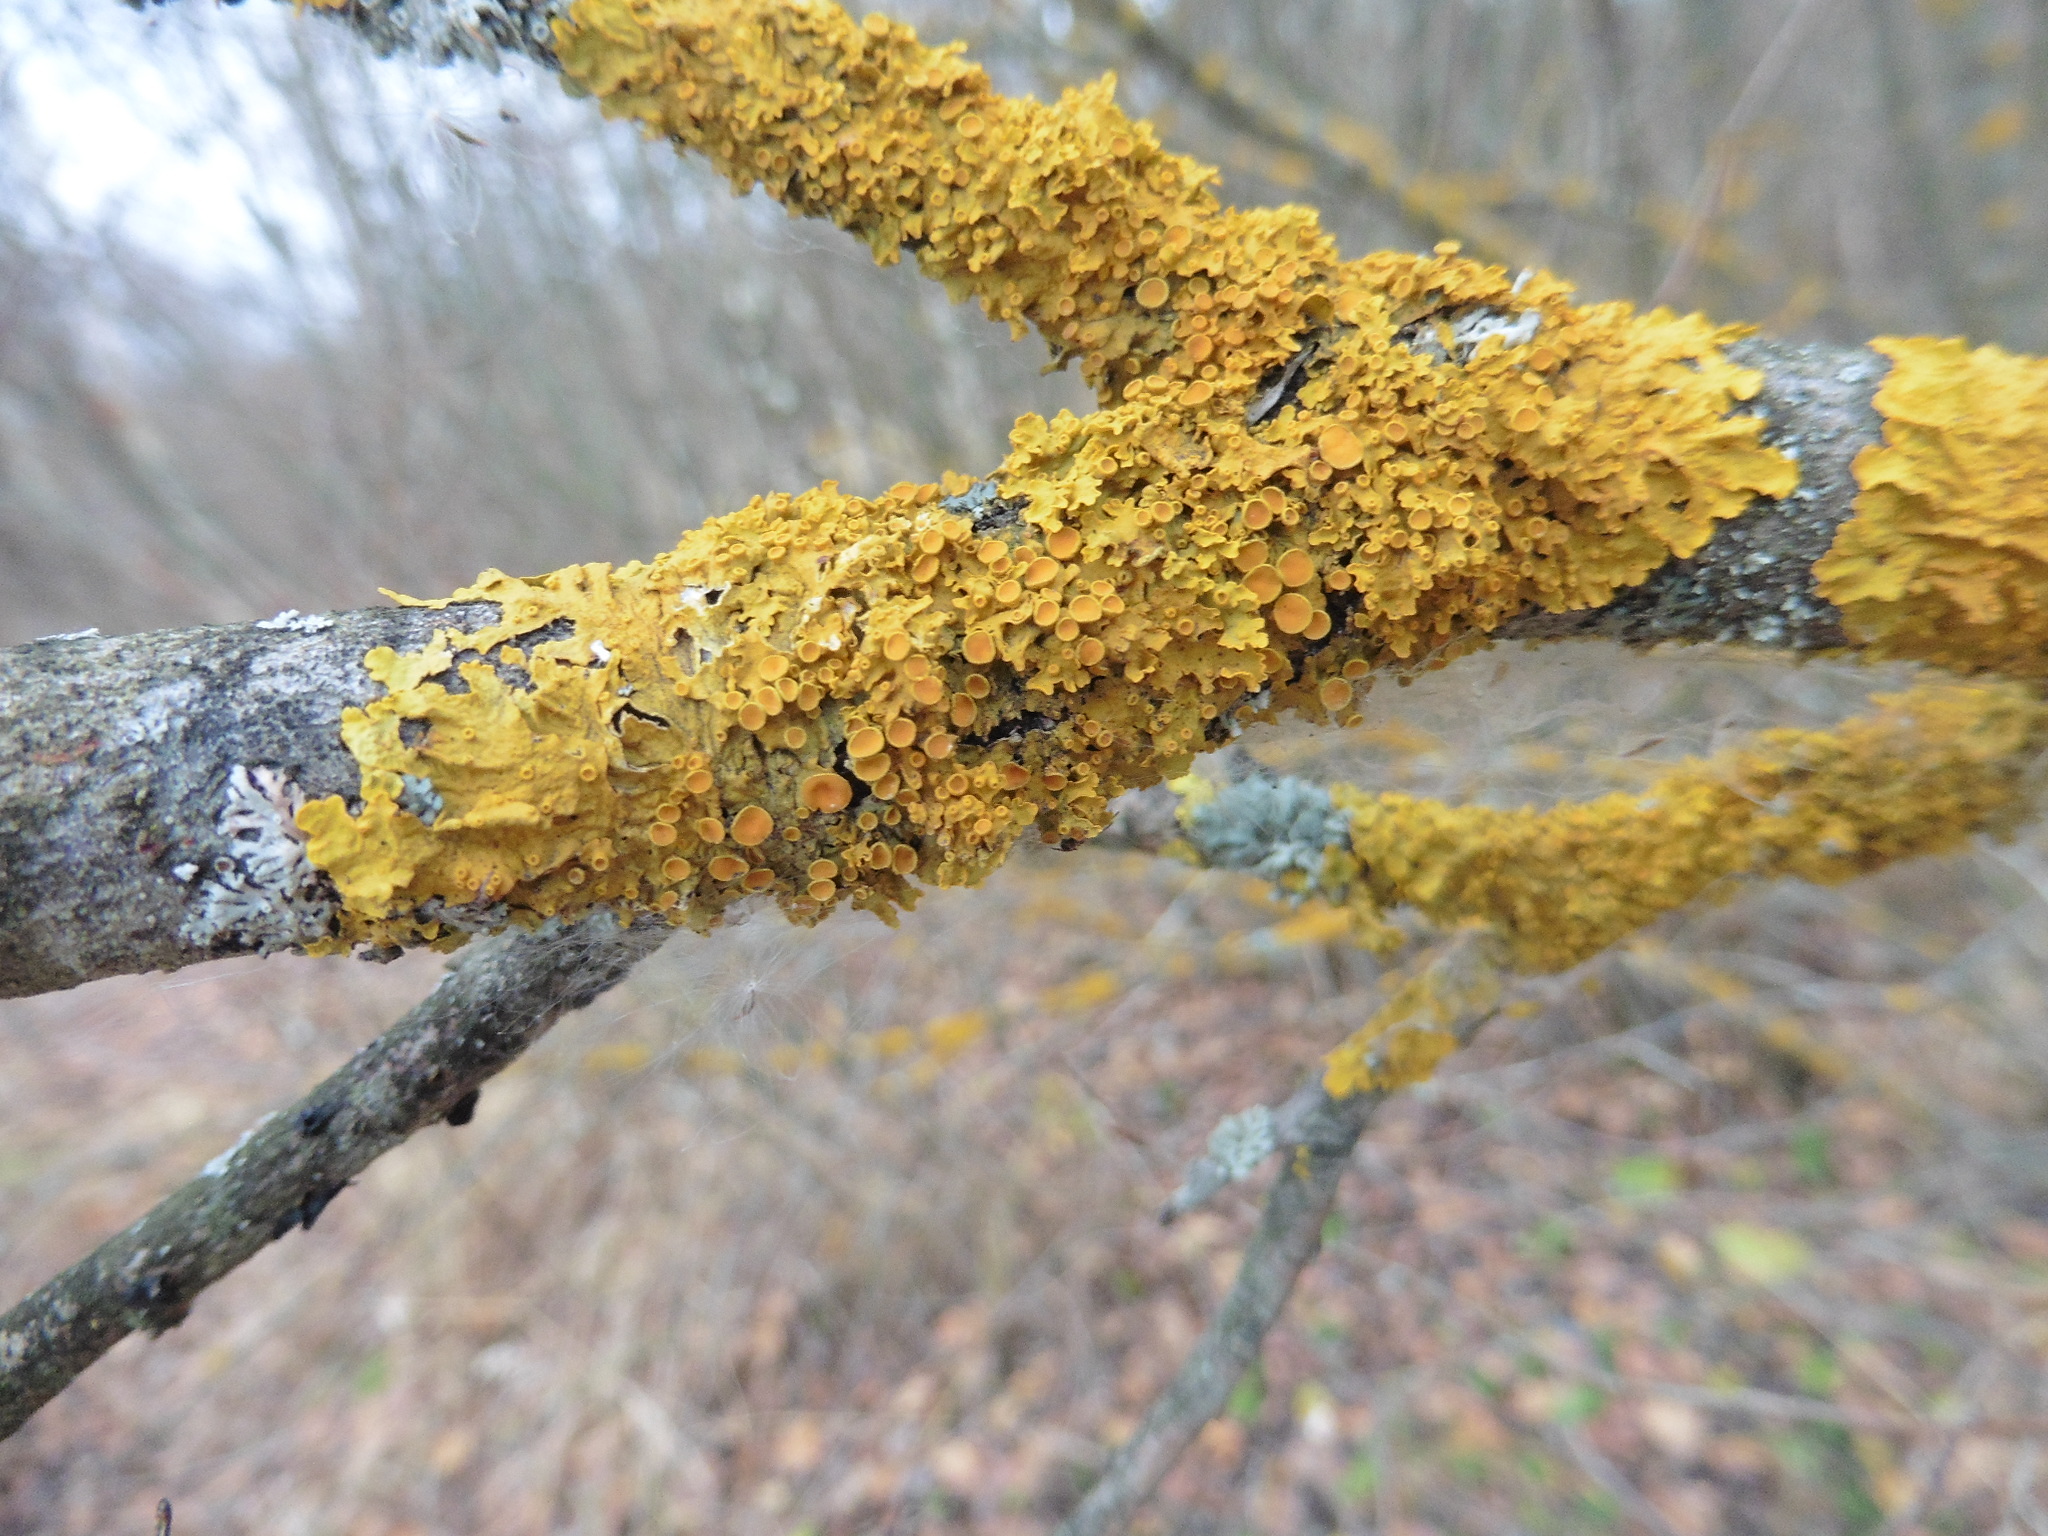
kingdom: Fungi
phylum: Ascomycota
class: Lecanoromycetes
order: Teloschistales
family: Teloschistaceae
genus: Xanthoria
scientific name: Xanthoria parietina
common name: Common orange lichen
